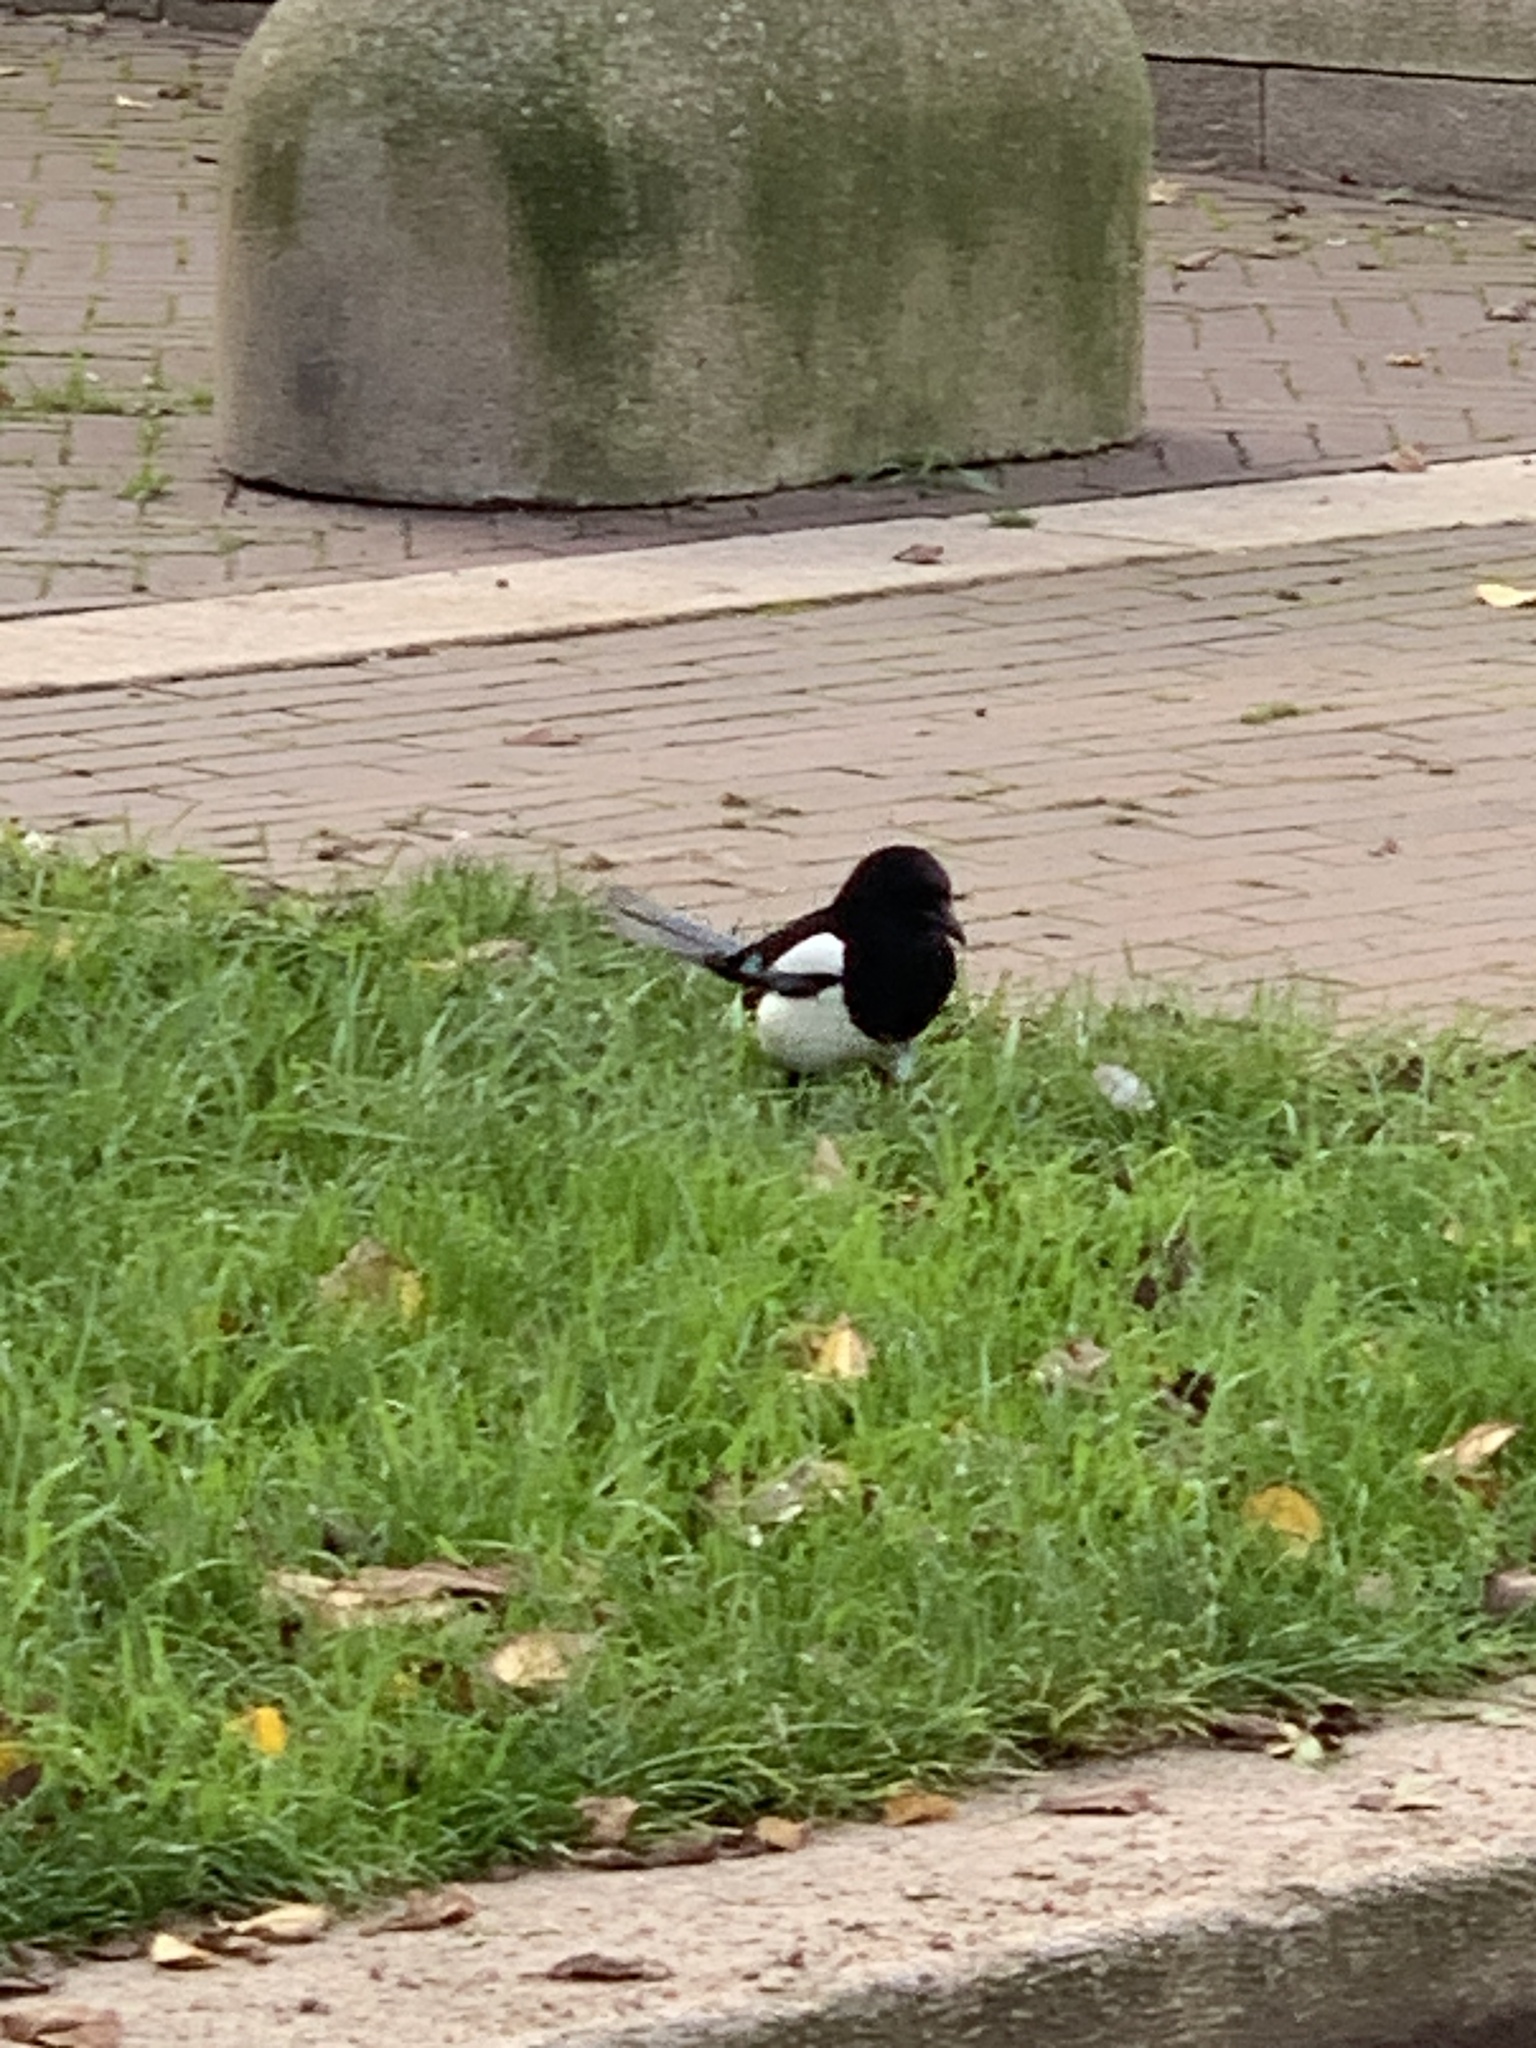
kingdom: Animalia
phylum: Chordata
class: Aves
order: Passeriformes
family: Corvidae
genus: Pica
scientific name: Pica pica
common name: Eurasian magpie
